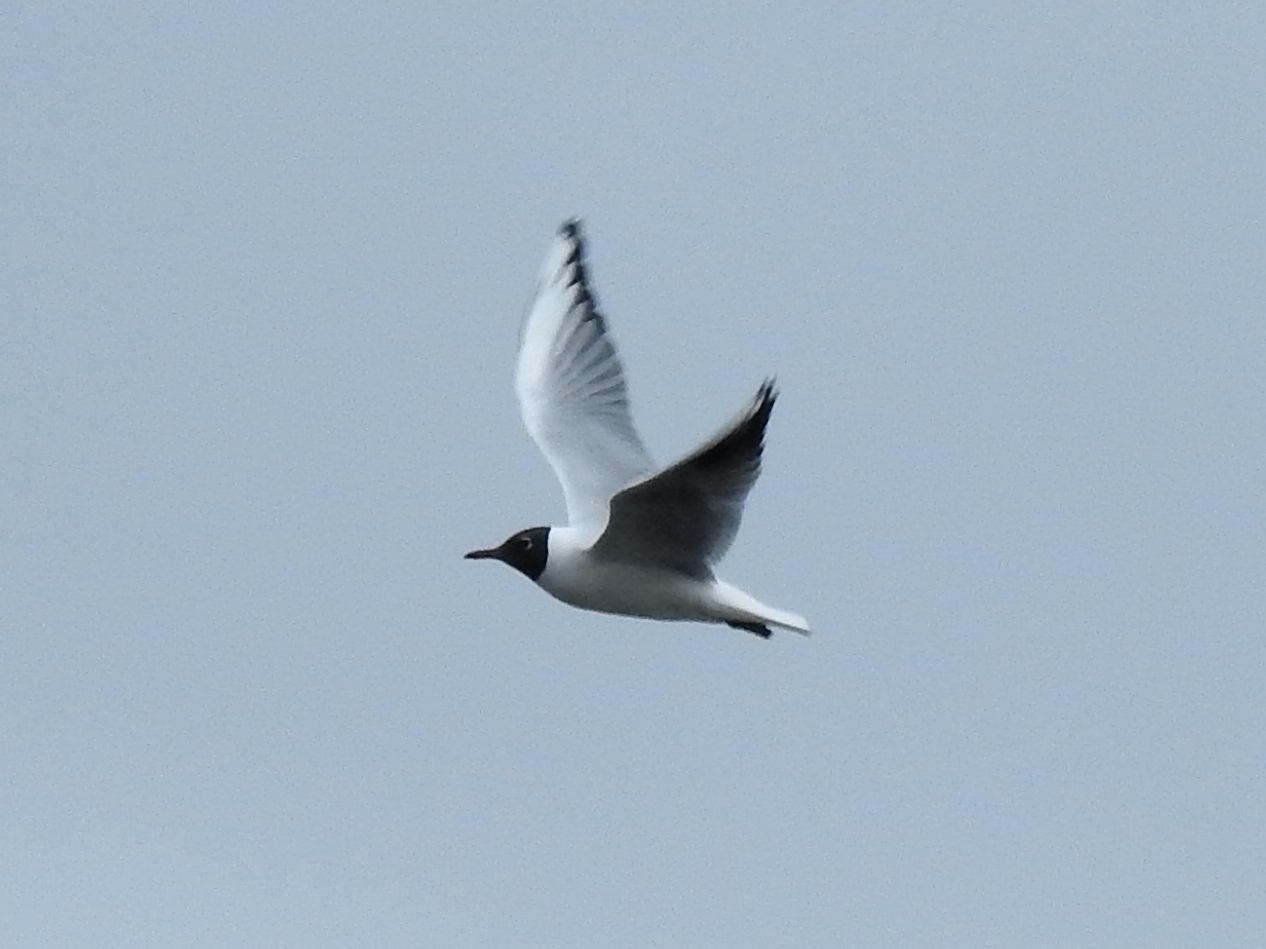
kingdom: Animalia
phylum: Chordata
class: Aves
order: Charadriiformes
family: Laridae
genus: Chroicocephalus
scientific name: Chroicocephalus ridibundus
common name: Black-headed gull
